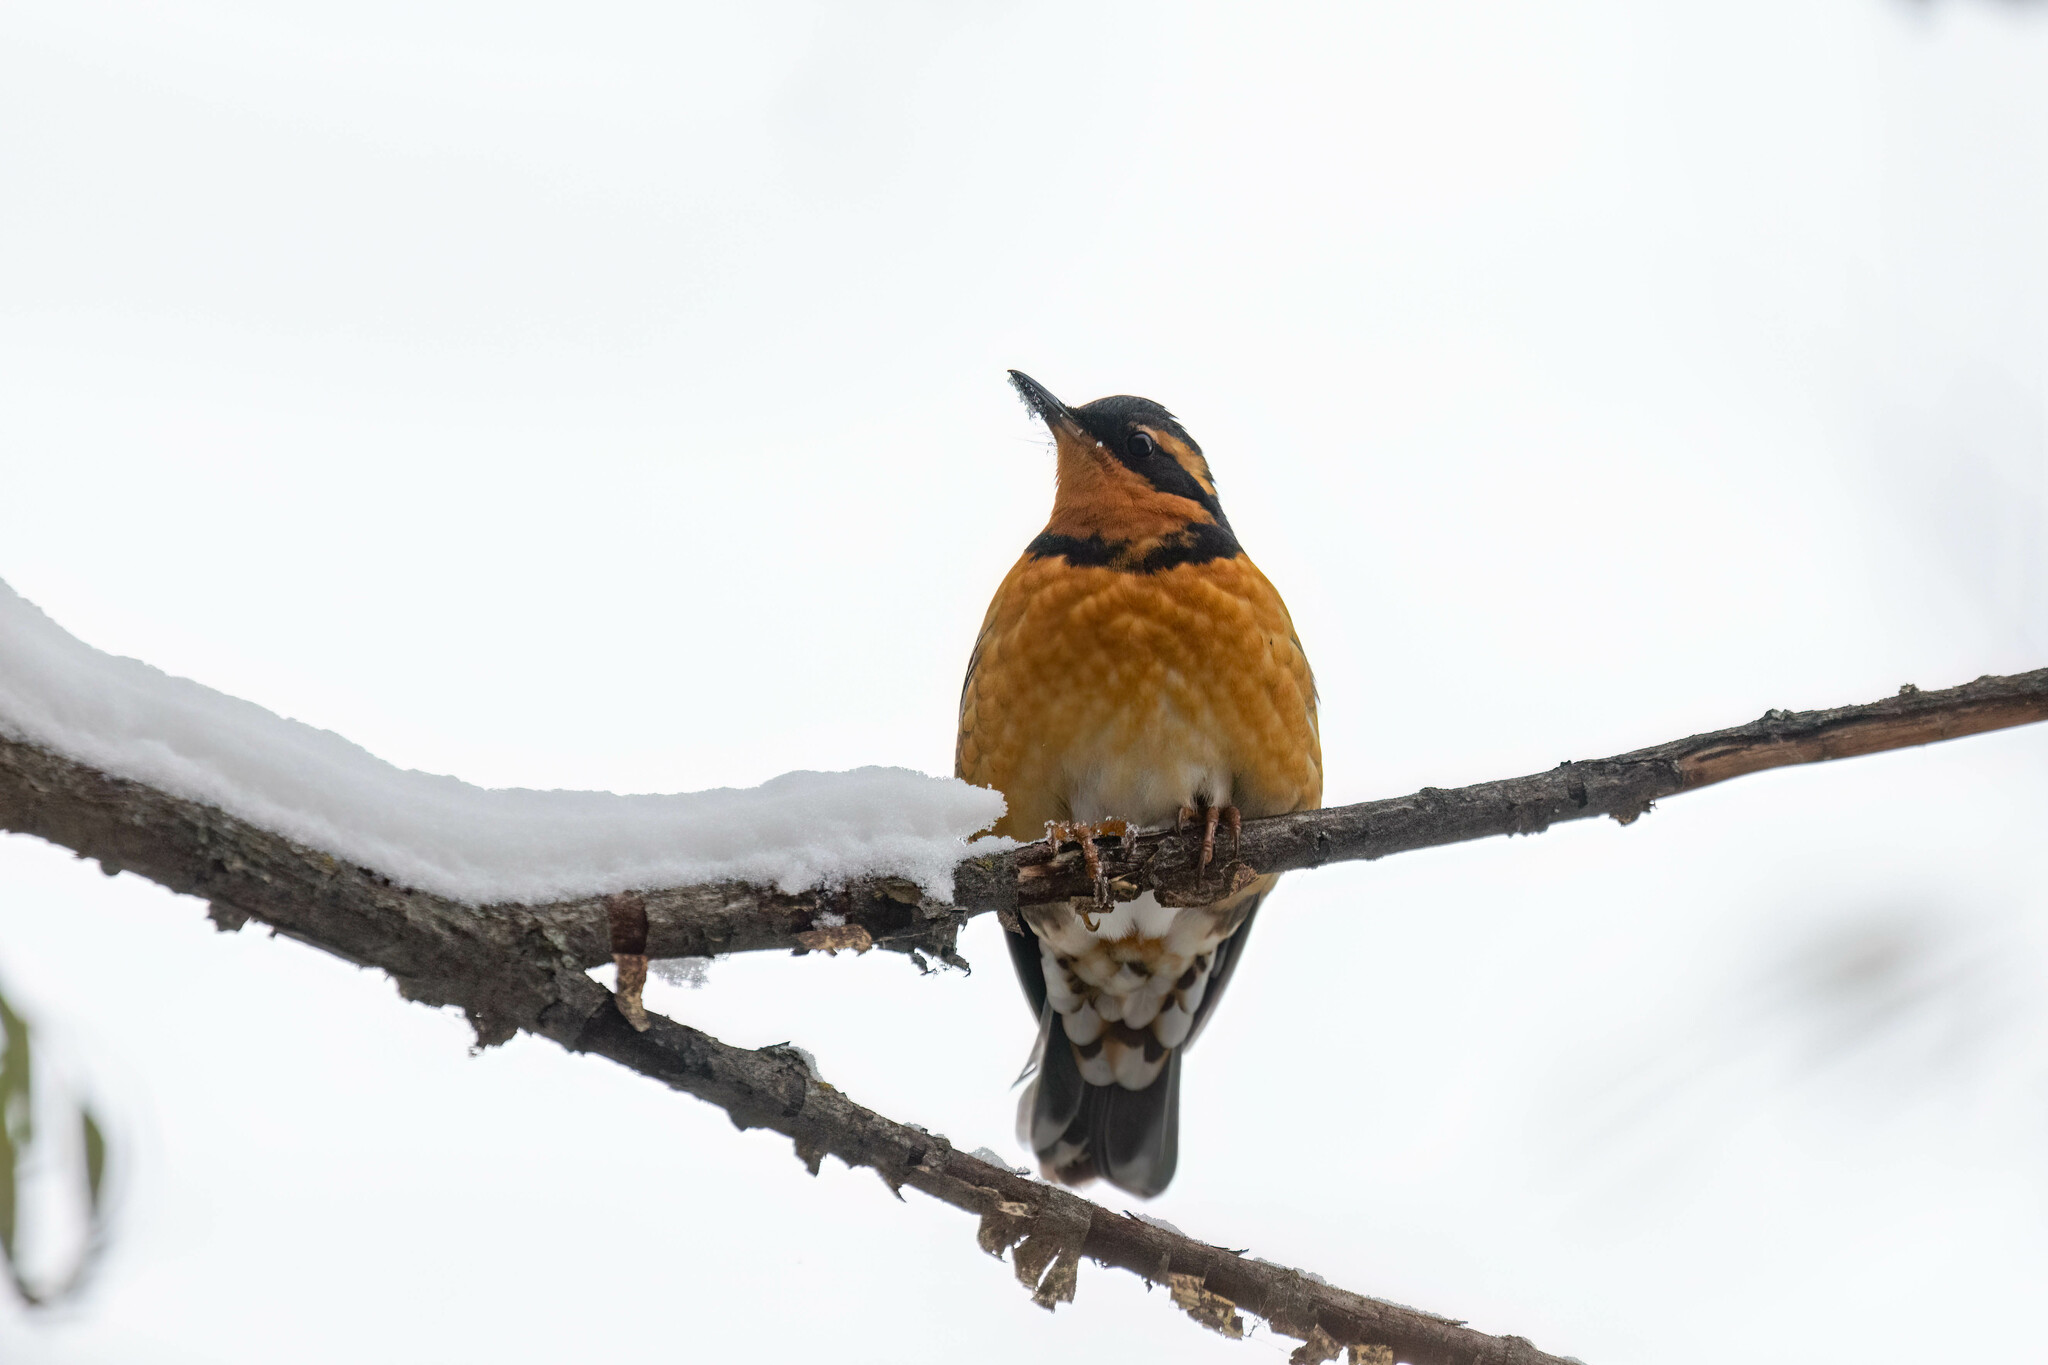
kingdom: Animalia
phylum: Chordata
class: Aves
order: Passeriformes
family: Turdidae
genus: Ixoreus
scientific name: Ixoreus naevius
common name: Varied thrush
